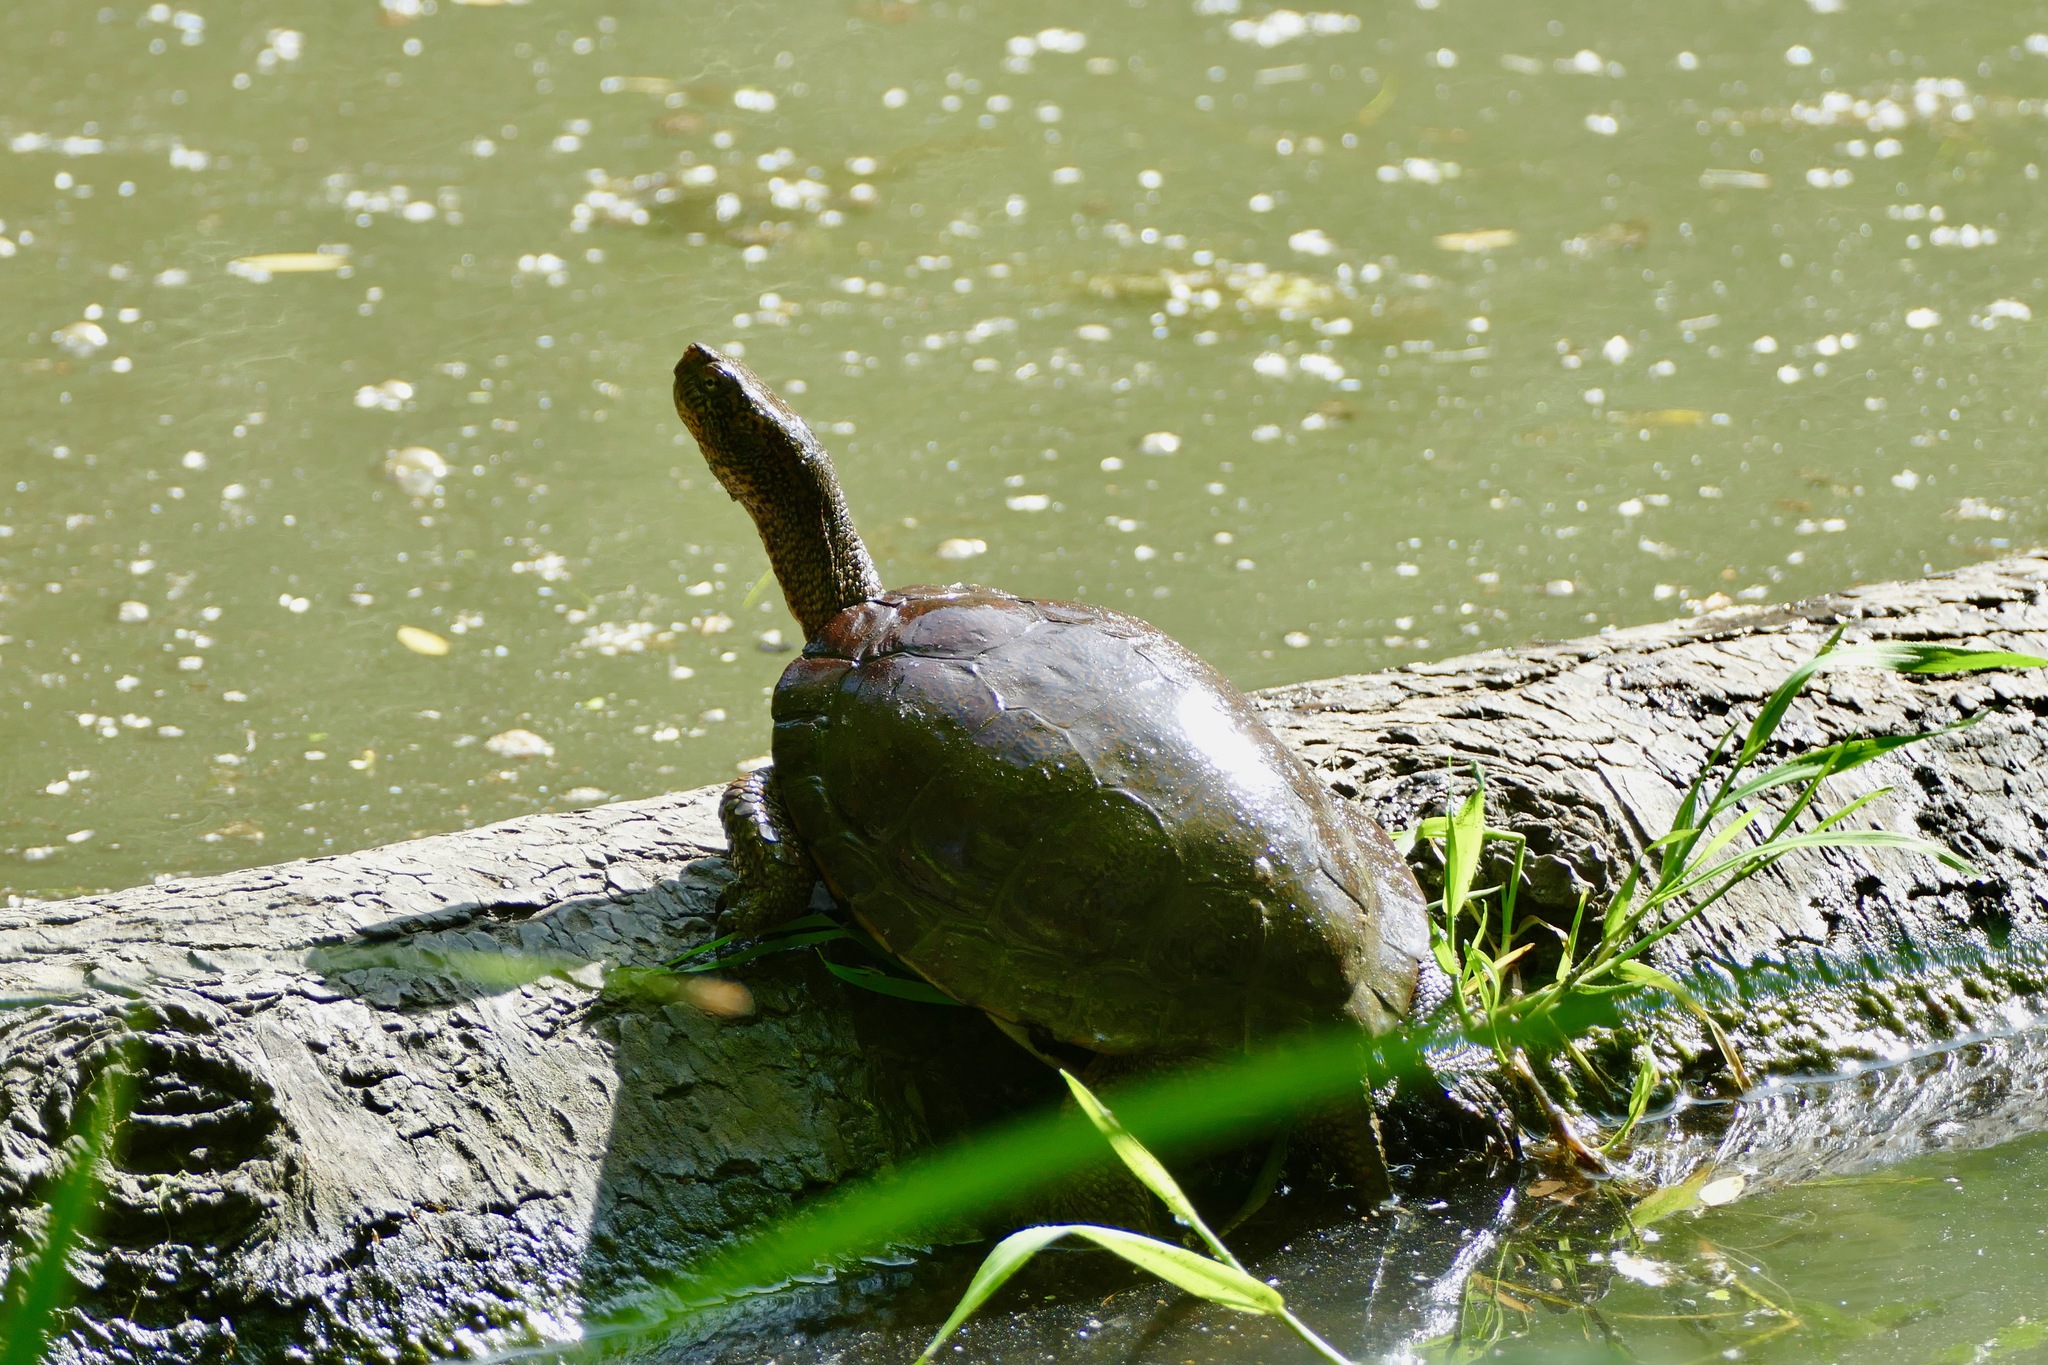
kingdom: Animalia
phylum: Chordata
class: Testudines
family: Emydidae
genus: Actinemys
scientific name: Actinemys marmorata
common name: Western pond turtle
